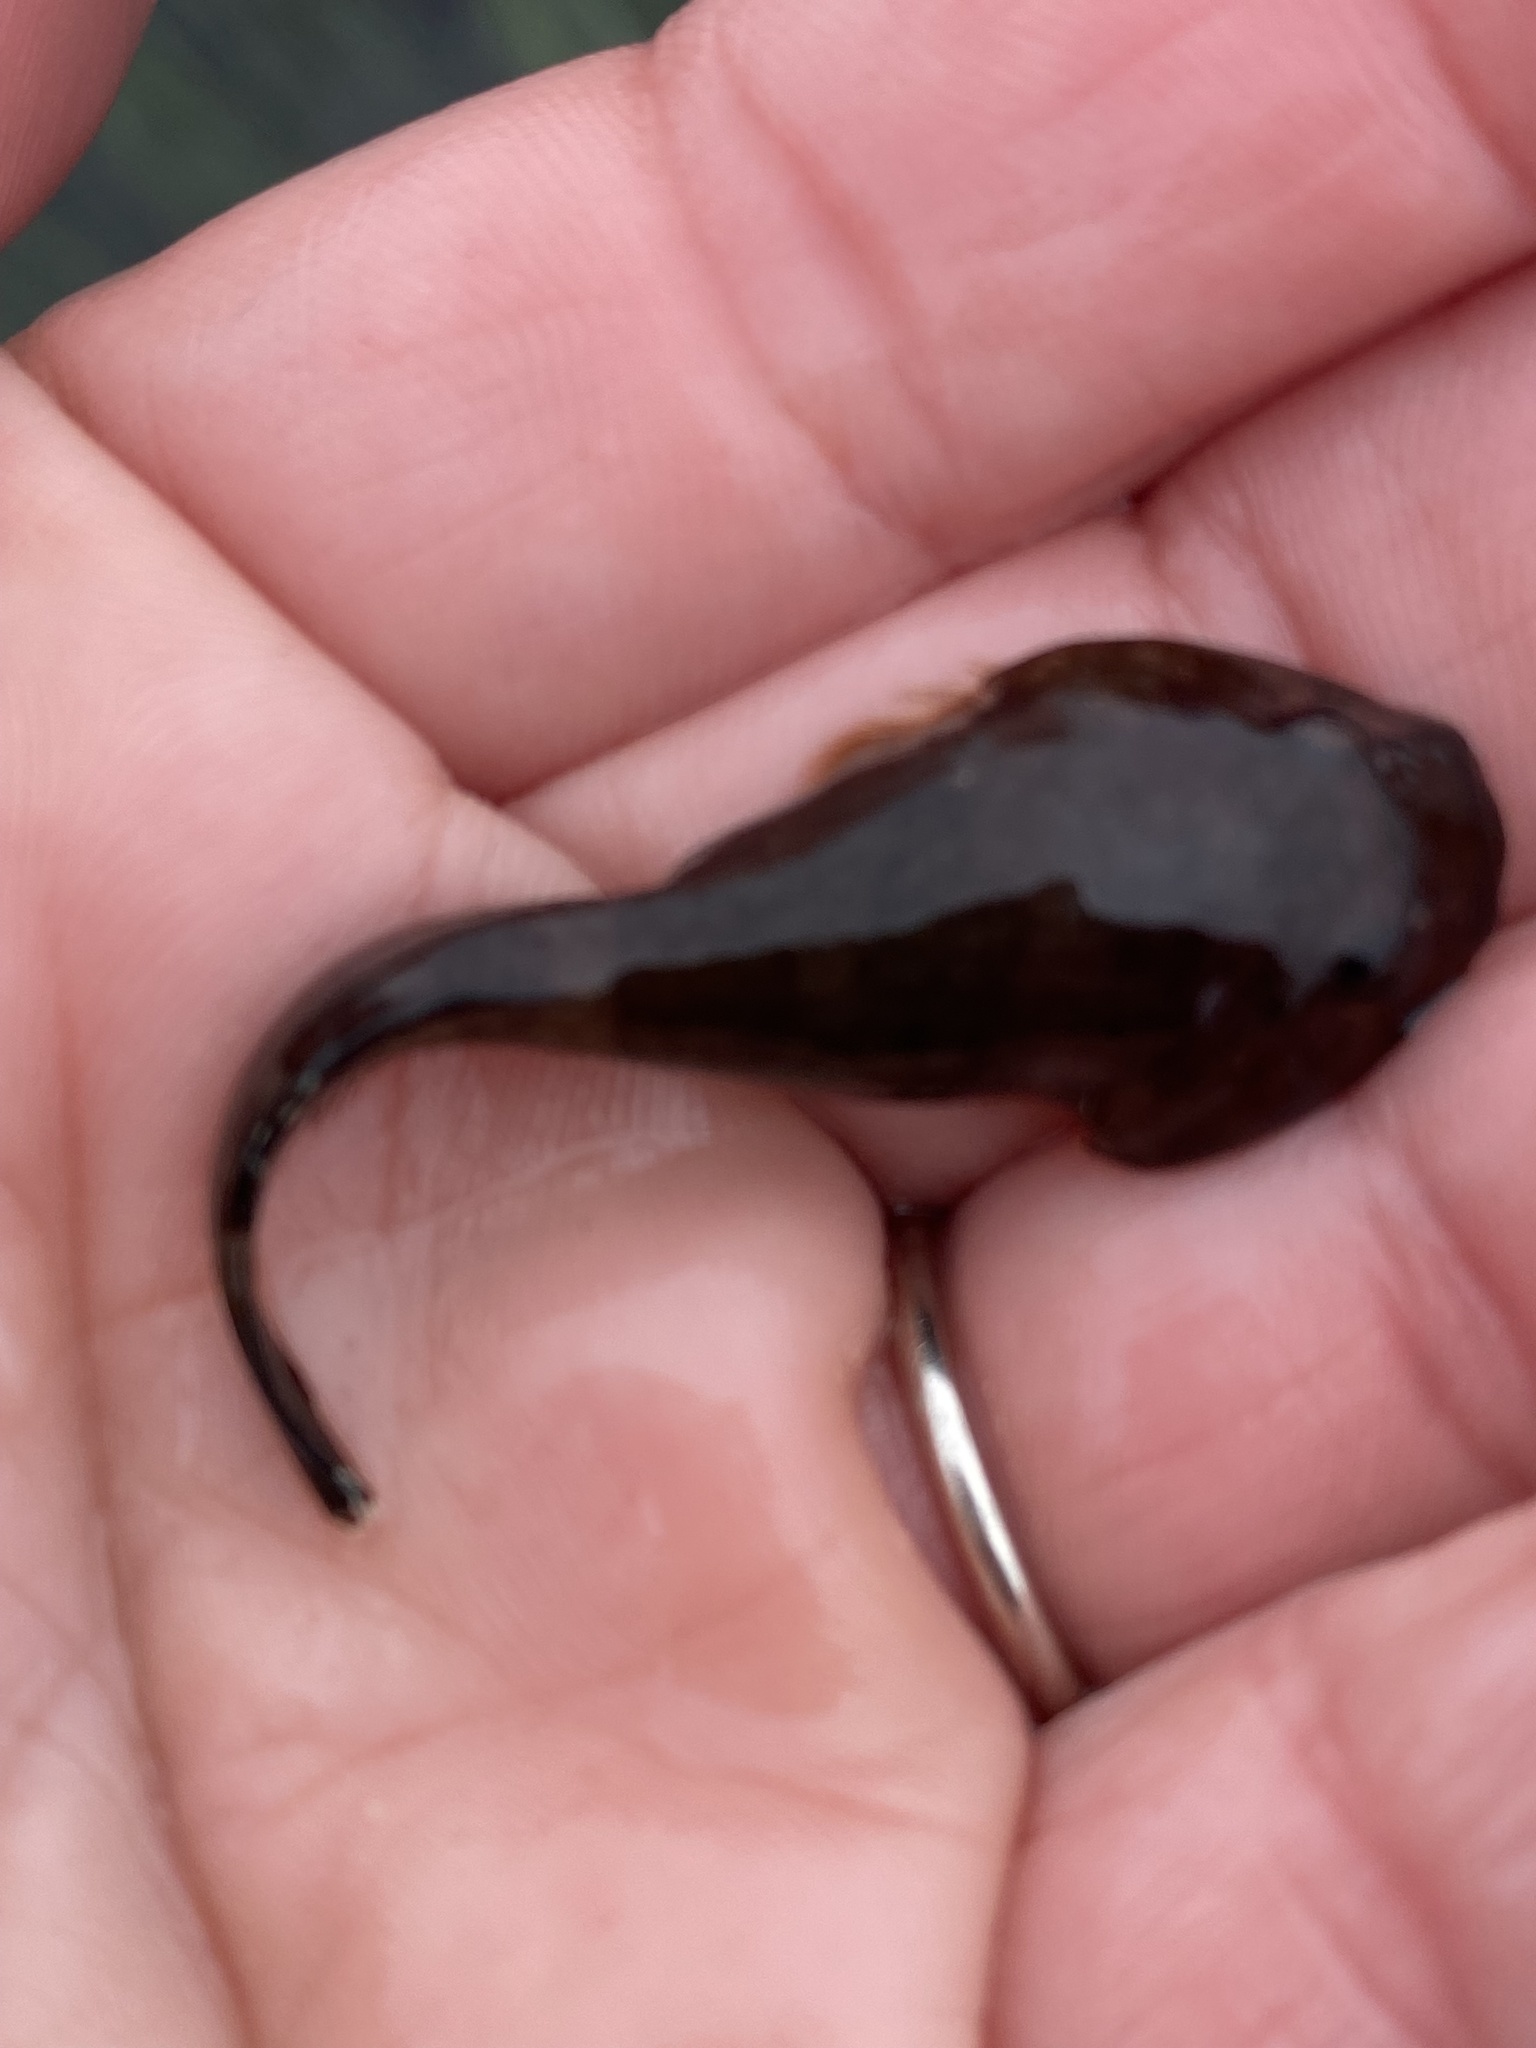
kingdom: Animalia
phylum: Chordata
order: Gobiesociformes
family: Gobiesocidae
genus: Gobiesox
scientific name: Gobiesox maeandricus
